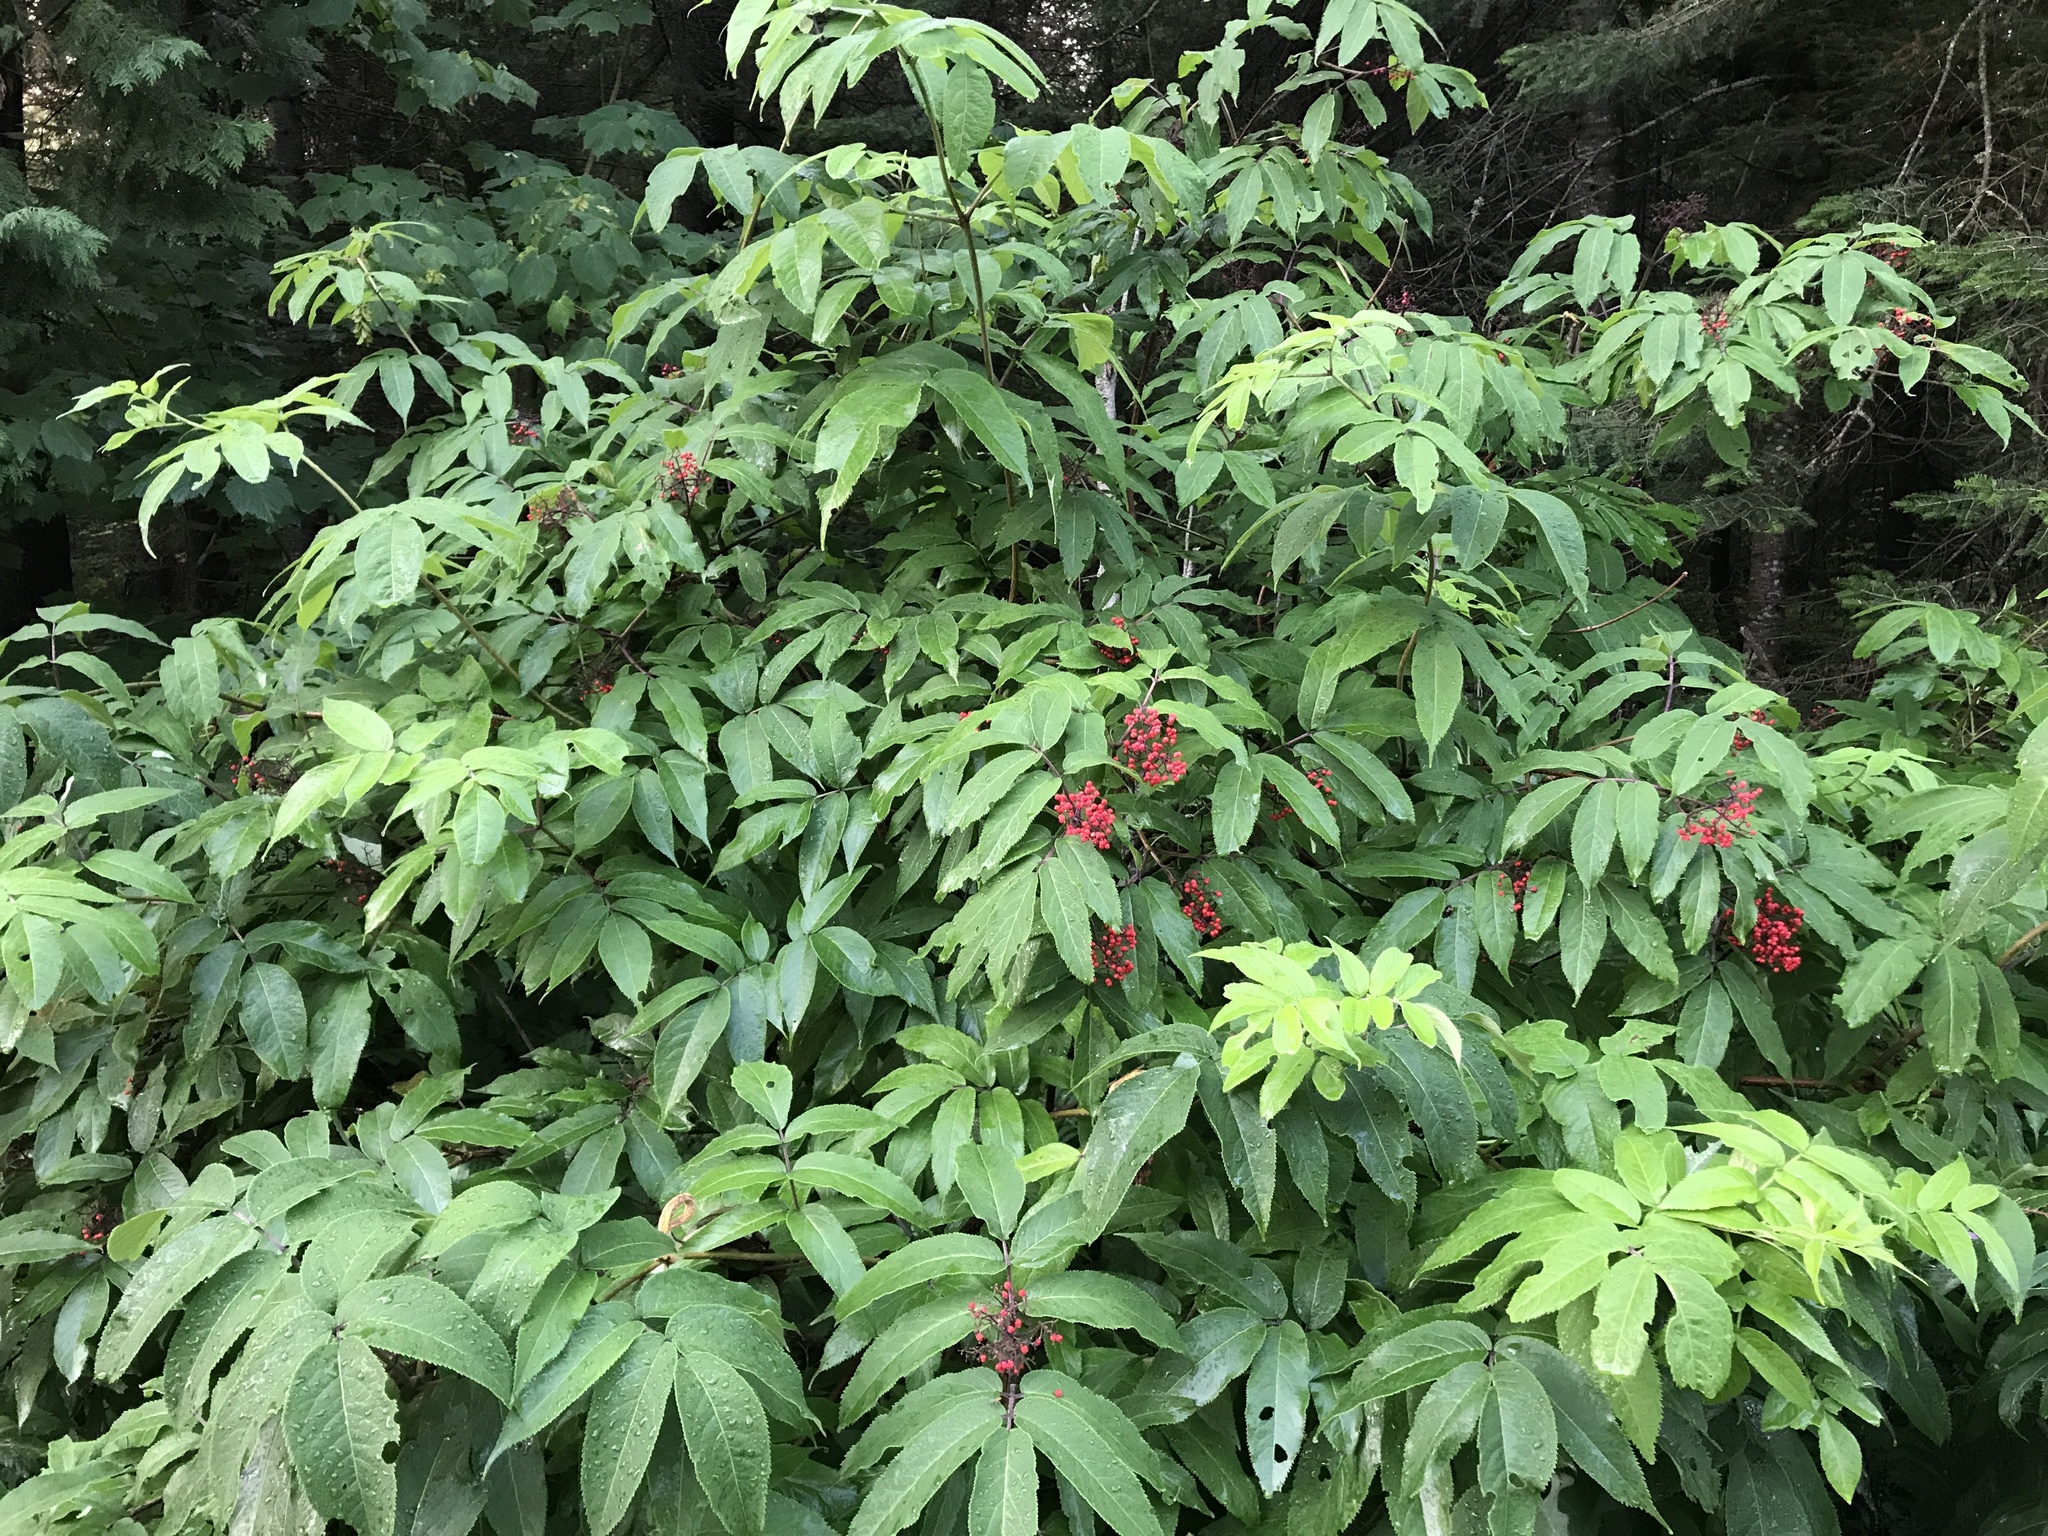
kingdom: Plantae
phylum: Tracheophyta
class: Magnoliopsida
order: Dipsacales
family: Viburnaceae
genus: Sambucus
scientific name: Sambucus racemosa
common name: Red-berried elder
